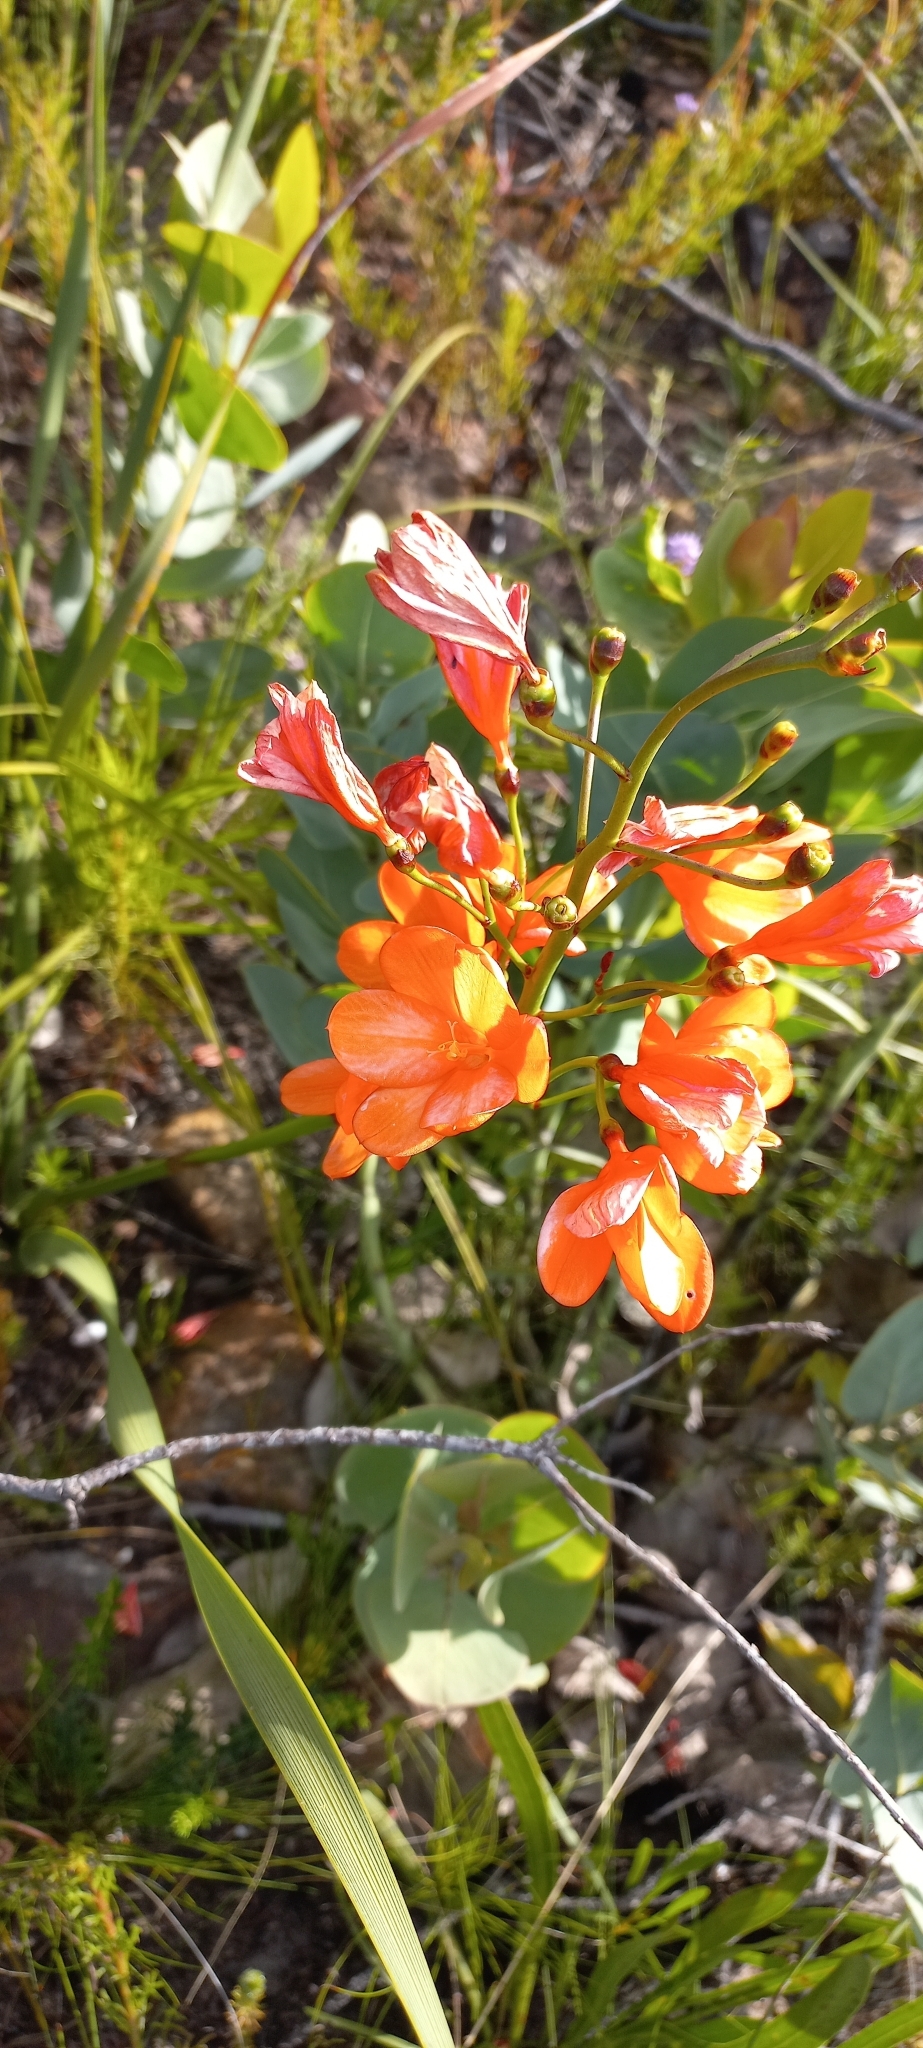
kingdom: Plantae
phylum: Tracheophyta
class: Liliopsida
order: Asparagales
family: Iridaceae
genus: Pillansia
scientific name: Pillansia templemannii
